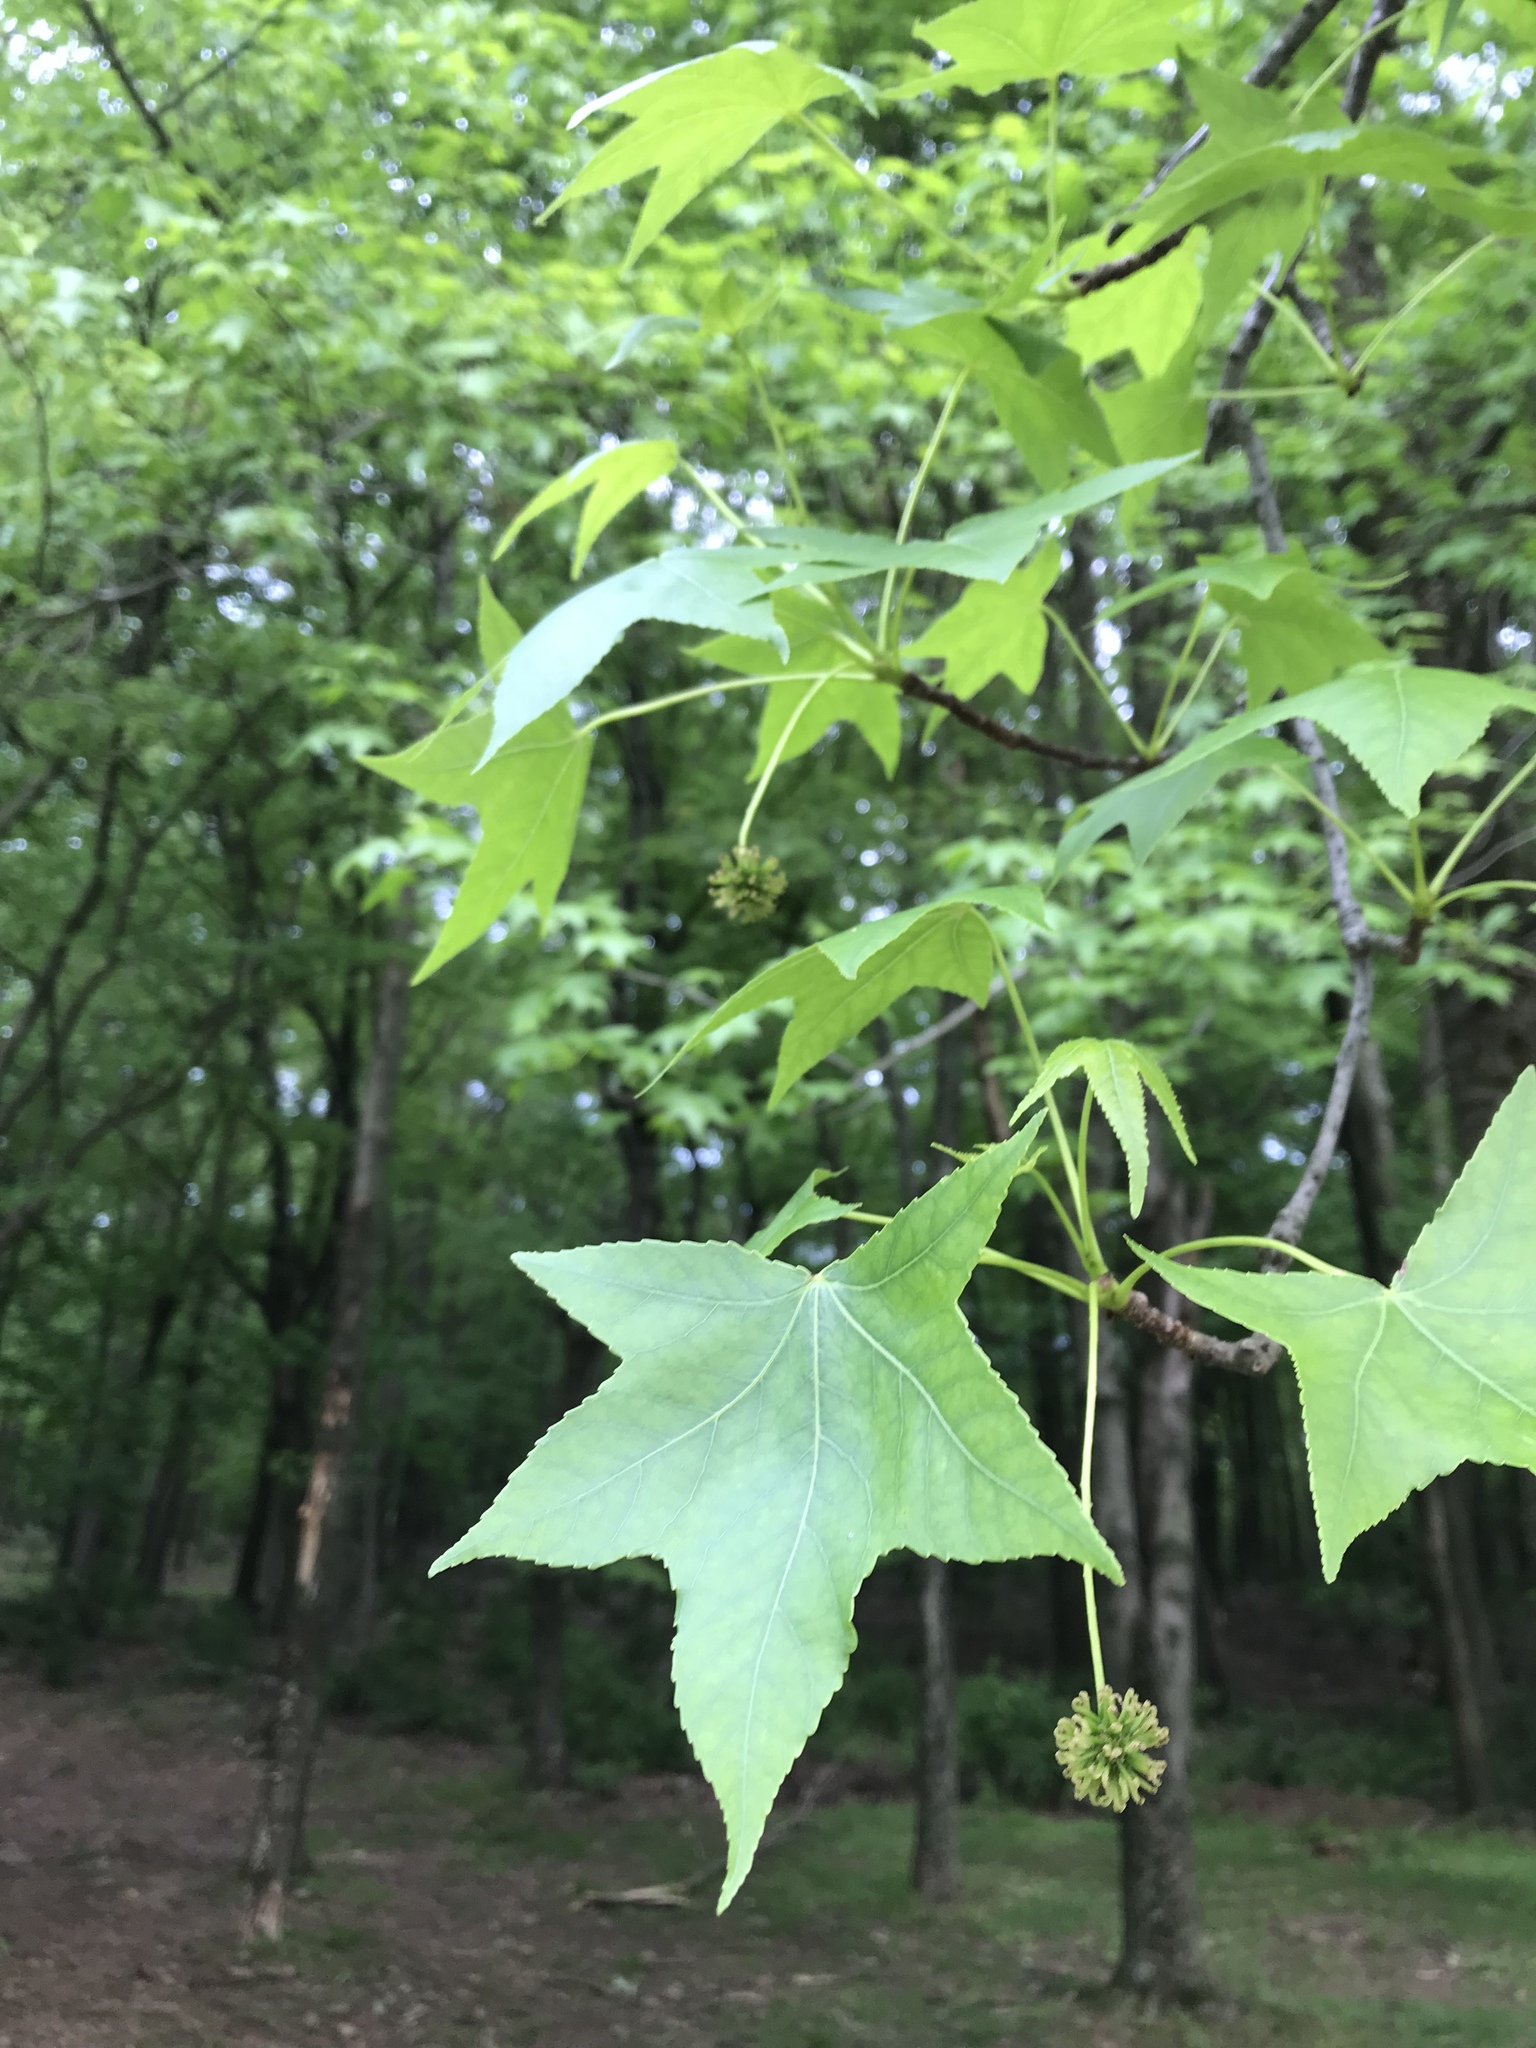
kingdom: Plantae
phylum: Tracheophyta
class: Magnoliopsida
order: Saxifragales
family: Altingiaceae
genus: Liquidambar
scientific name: Liquidambar styraciflua
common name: Sweet gum
